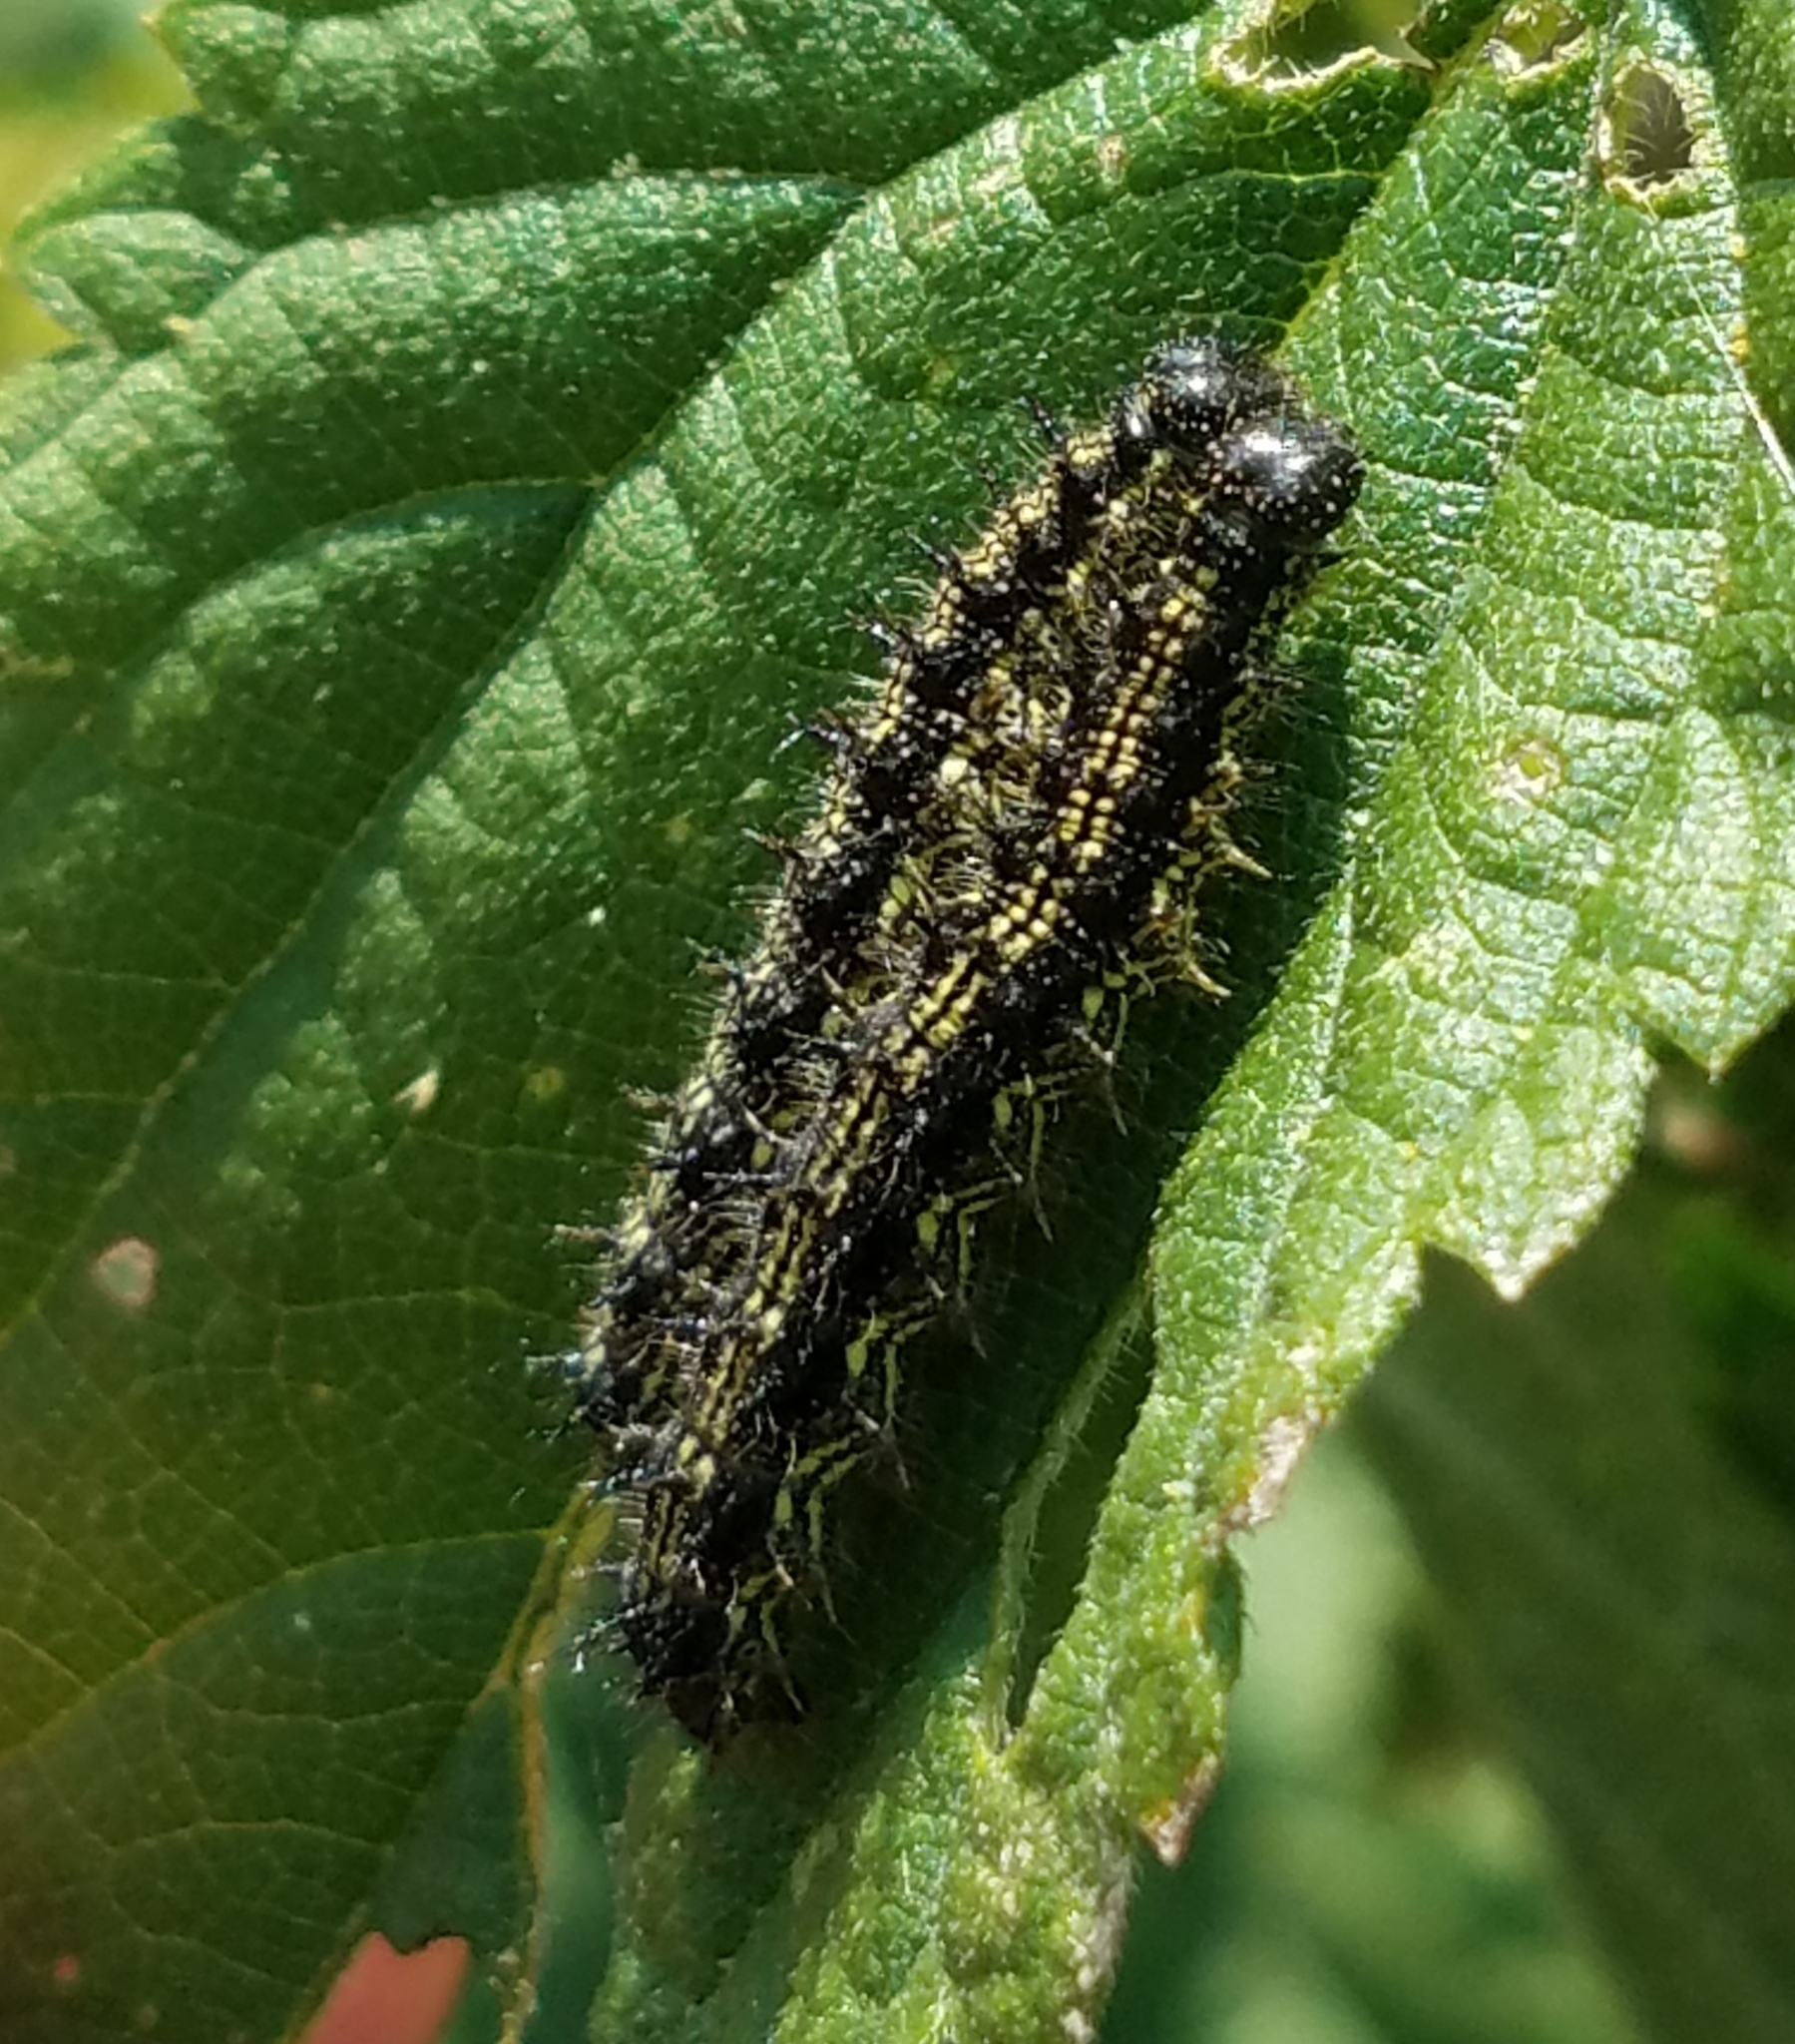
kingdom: Animalia
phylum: Arthropoda
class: Insecta
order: Lepidoptera
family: Nymphalidae
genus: Aglais
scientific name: Aglais urticae
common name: Small tortoiseshell
